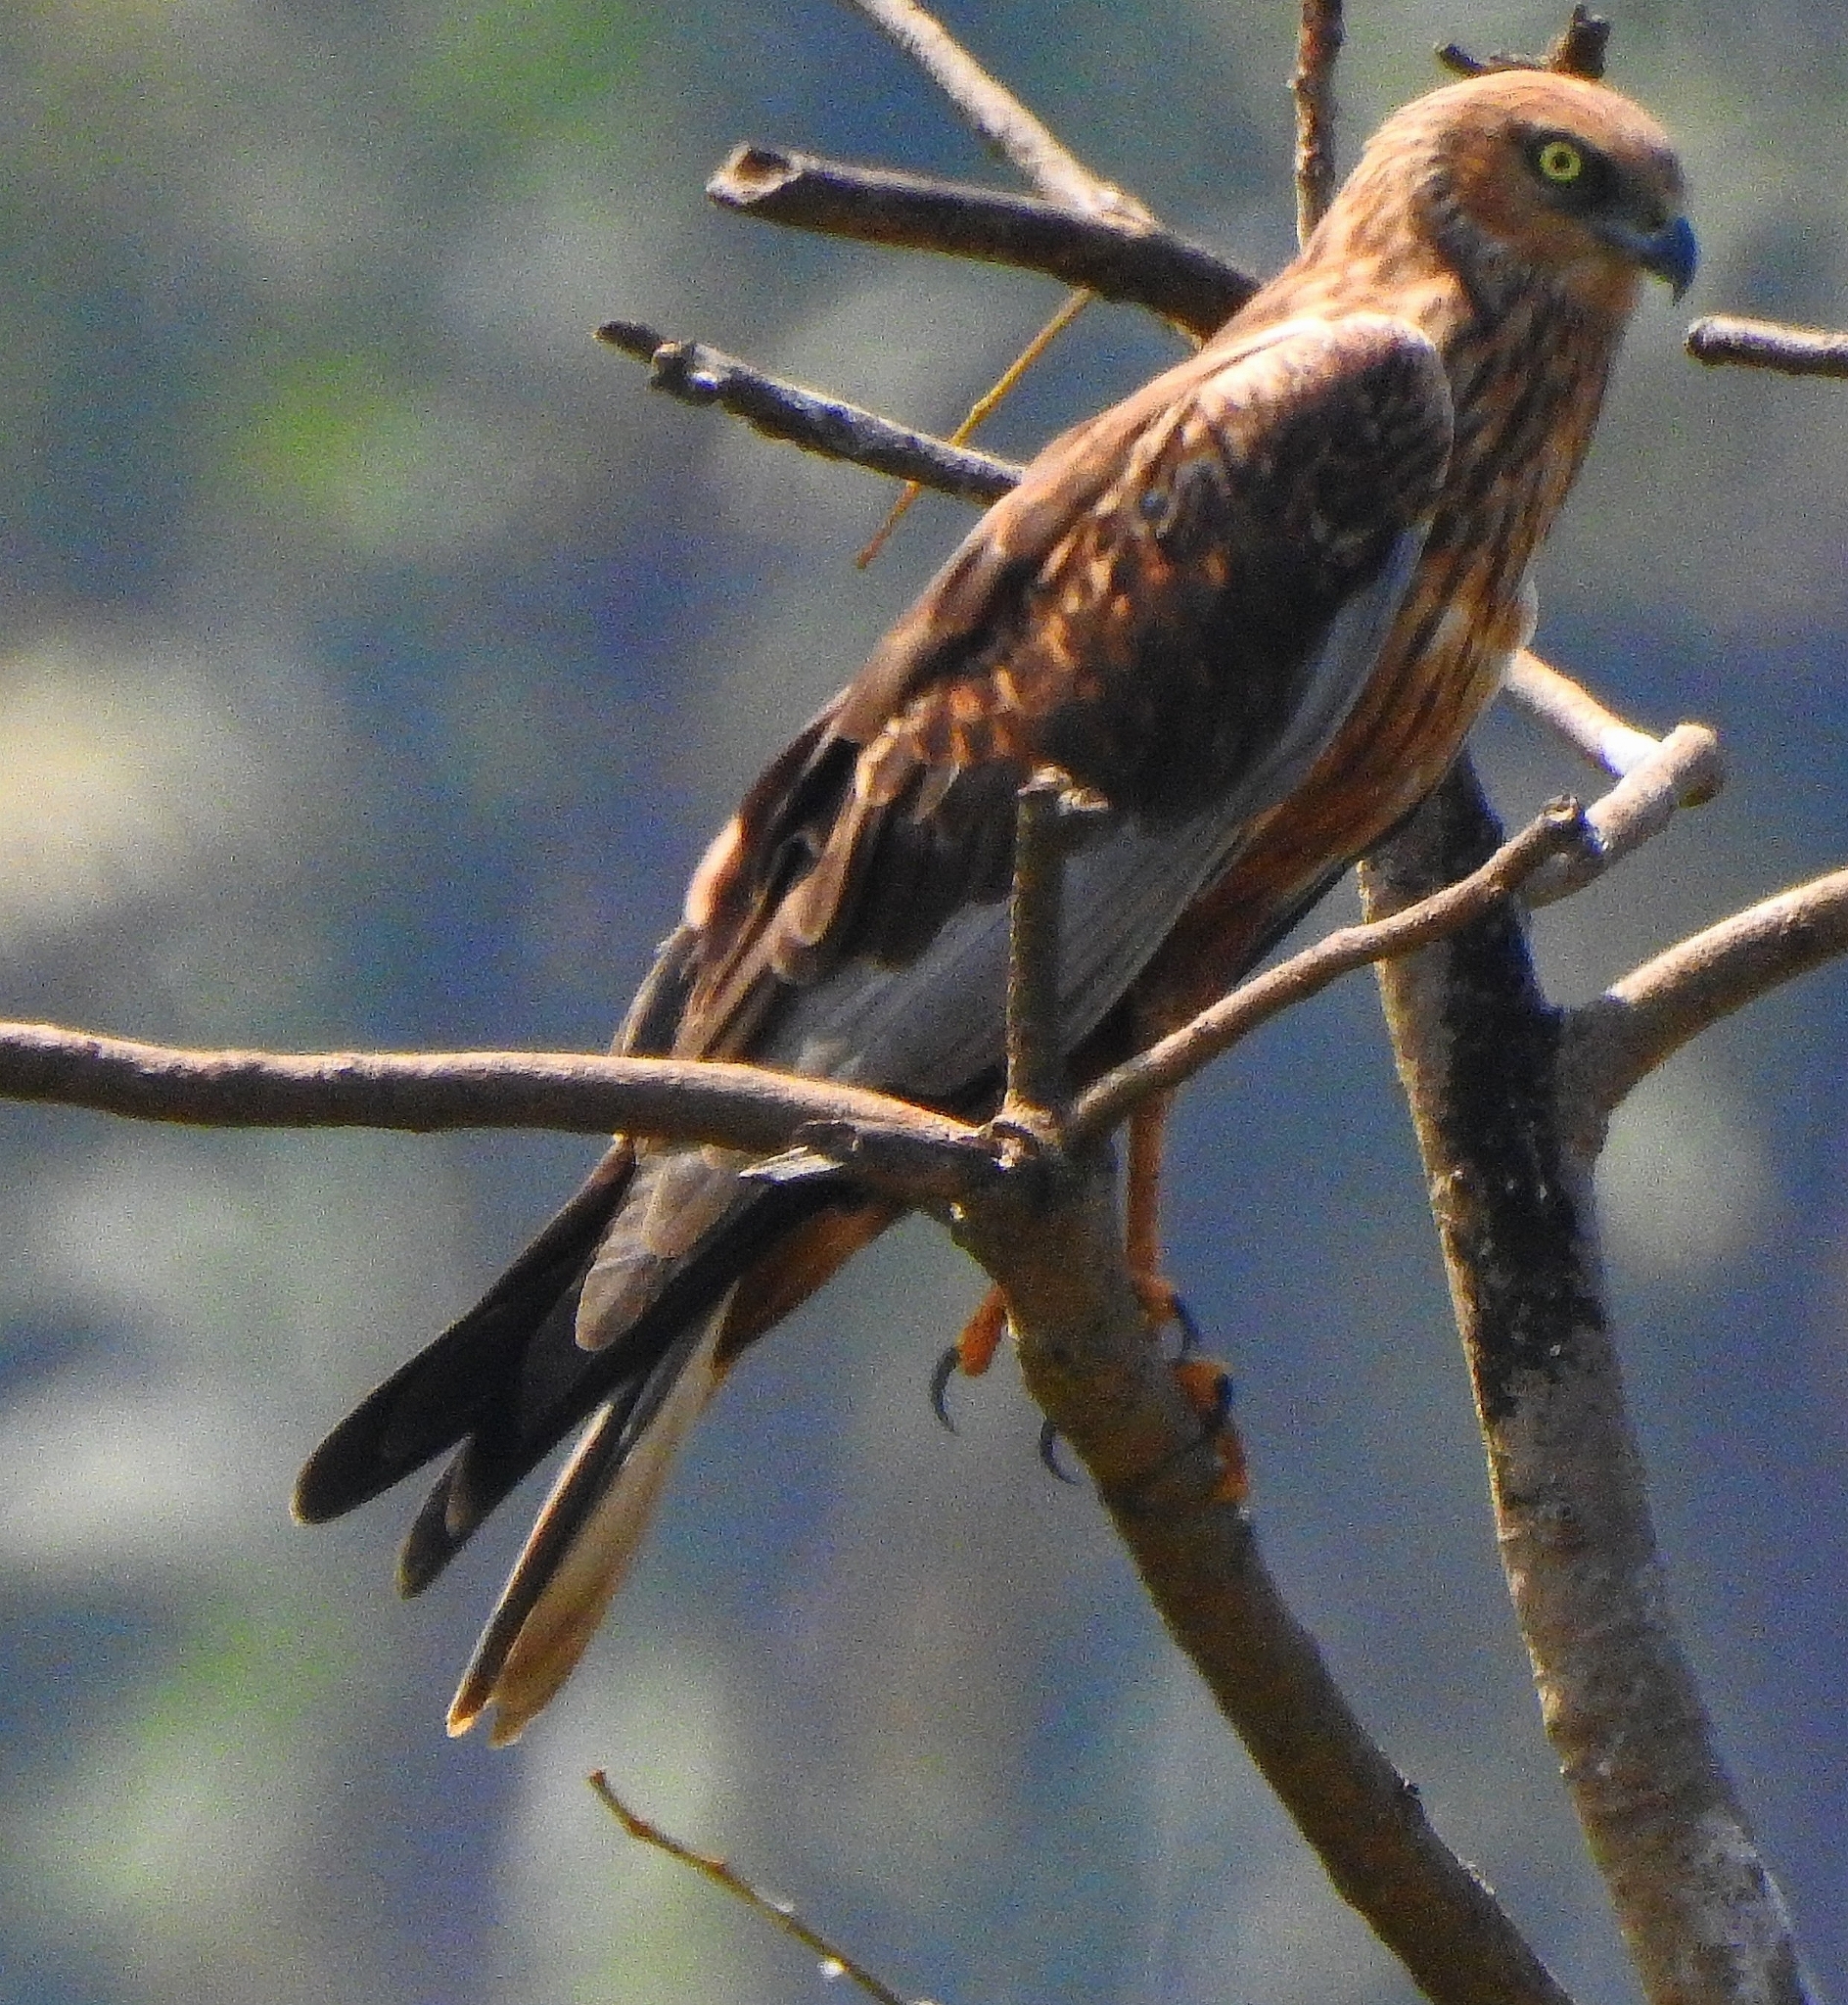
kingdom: Animalia
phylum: Chordata
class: Aves
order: Accipitriformes
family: Accipitridae
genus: Circus
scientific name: Circus aeruginosus
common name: Western marsh harrier
